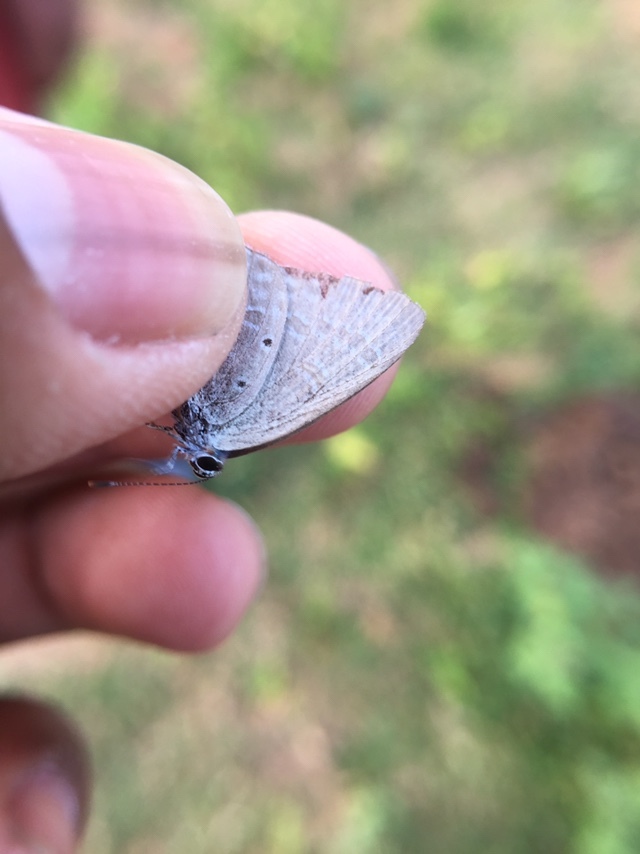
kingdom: Animalia
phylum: Arthropoda
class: Insecta
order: Lepidoptera
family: Lycaenidae
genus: Catochrysops
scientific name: Catochrysops strabo
